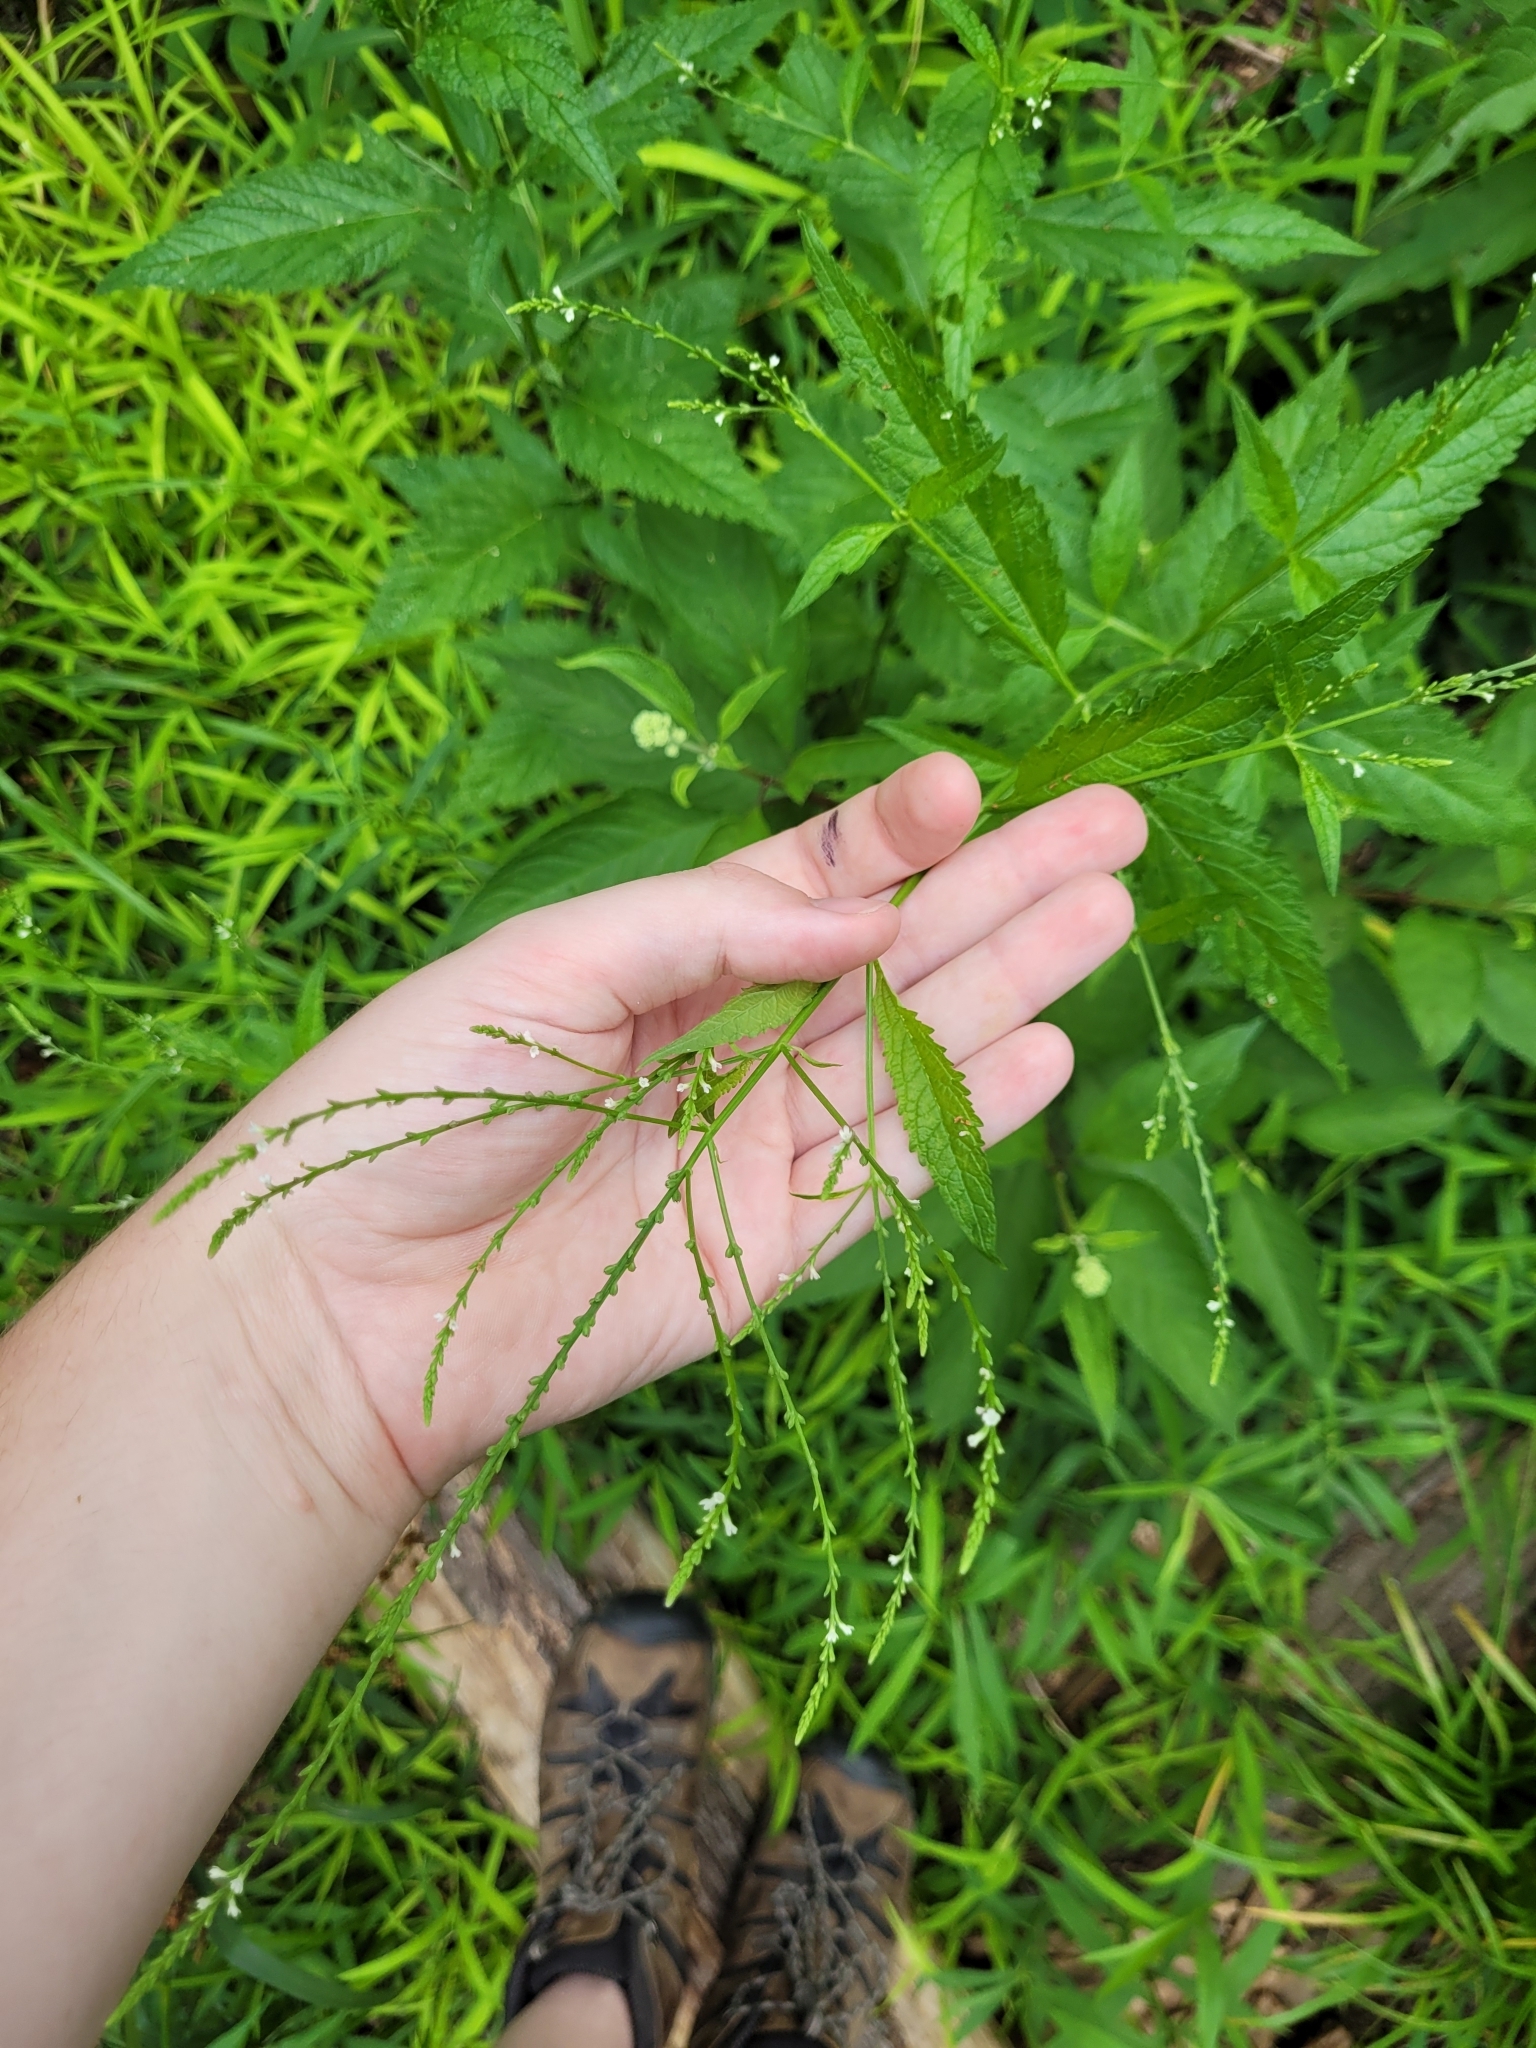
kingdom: Plantae
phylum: Tracheophyta
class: Magnoliopsida
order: Lamiales
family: Verbenaceae
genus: Verbena
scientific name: Verbena urticifolia
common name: Nettle-leaved vervain
